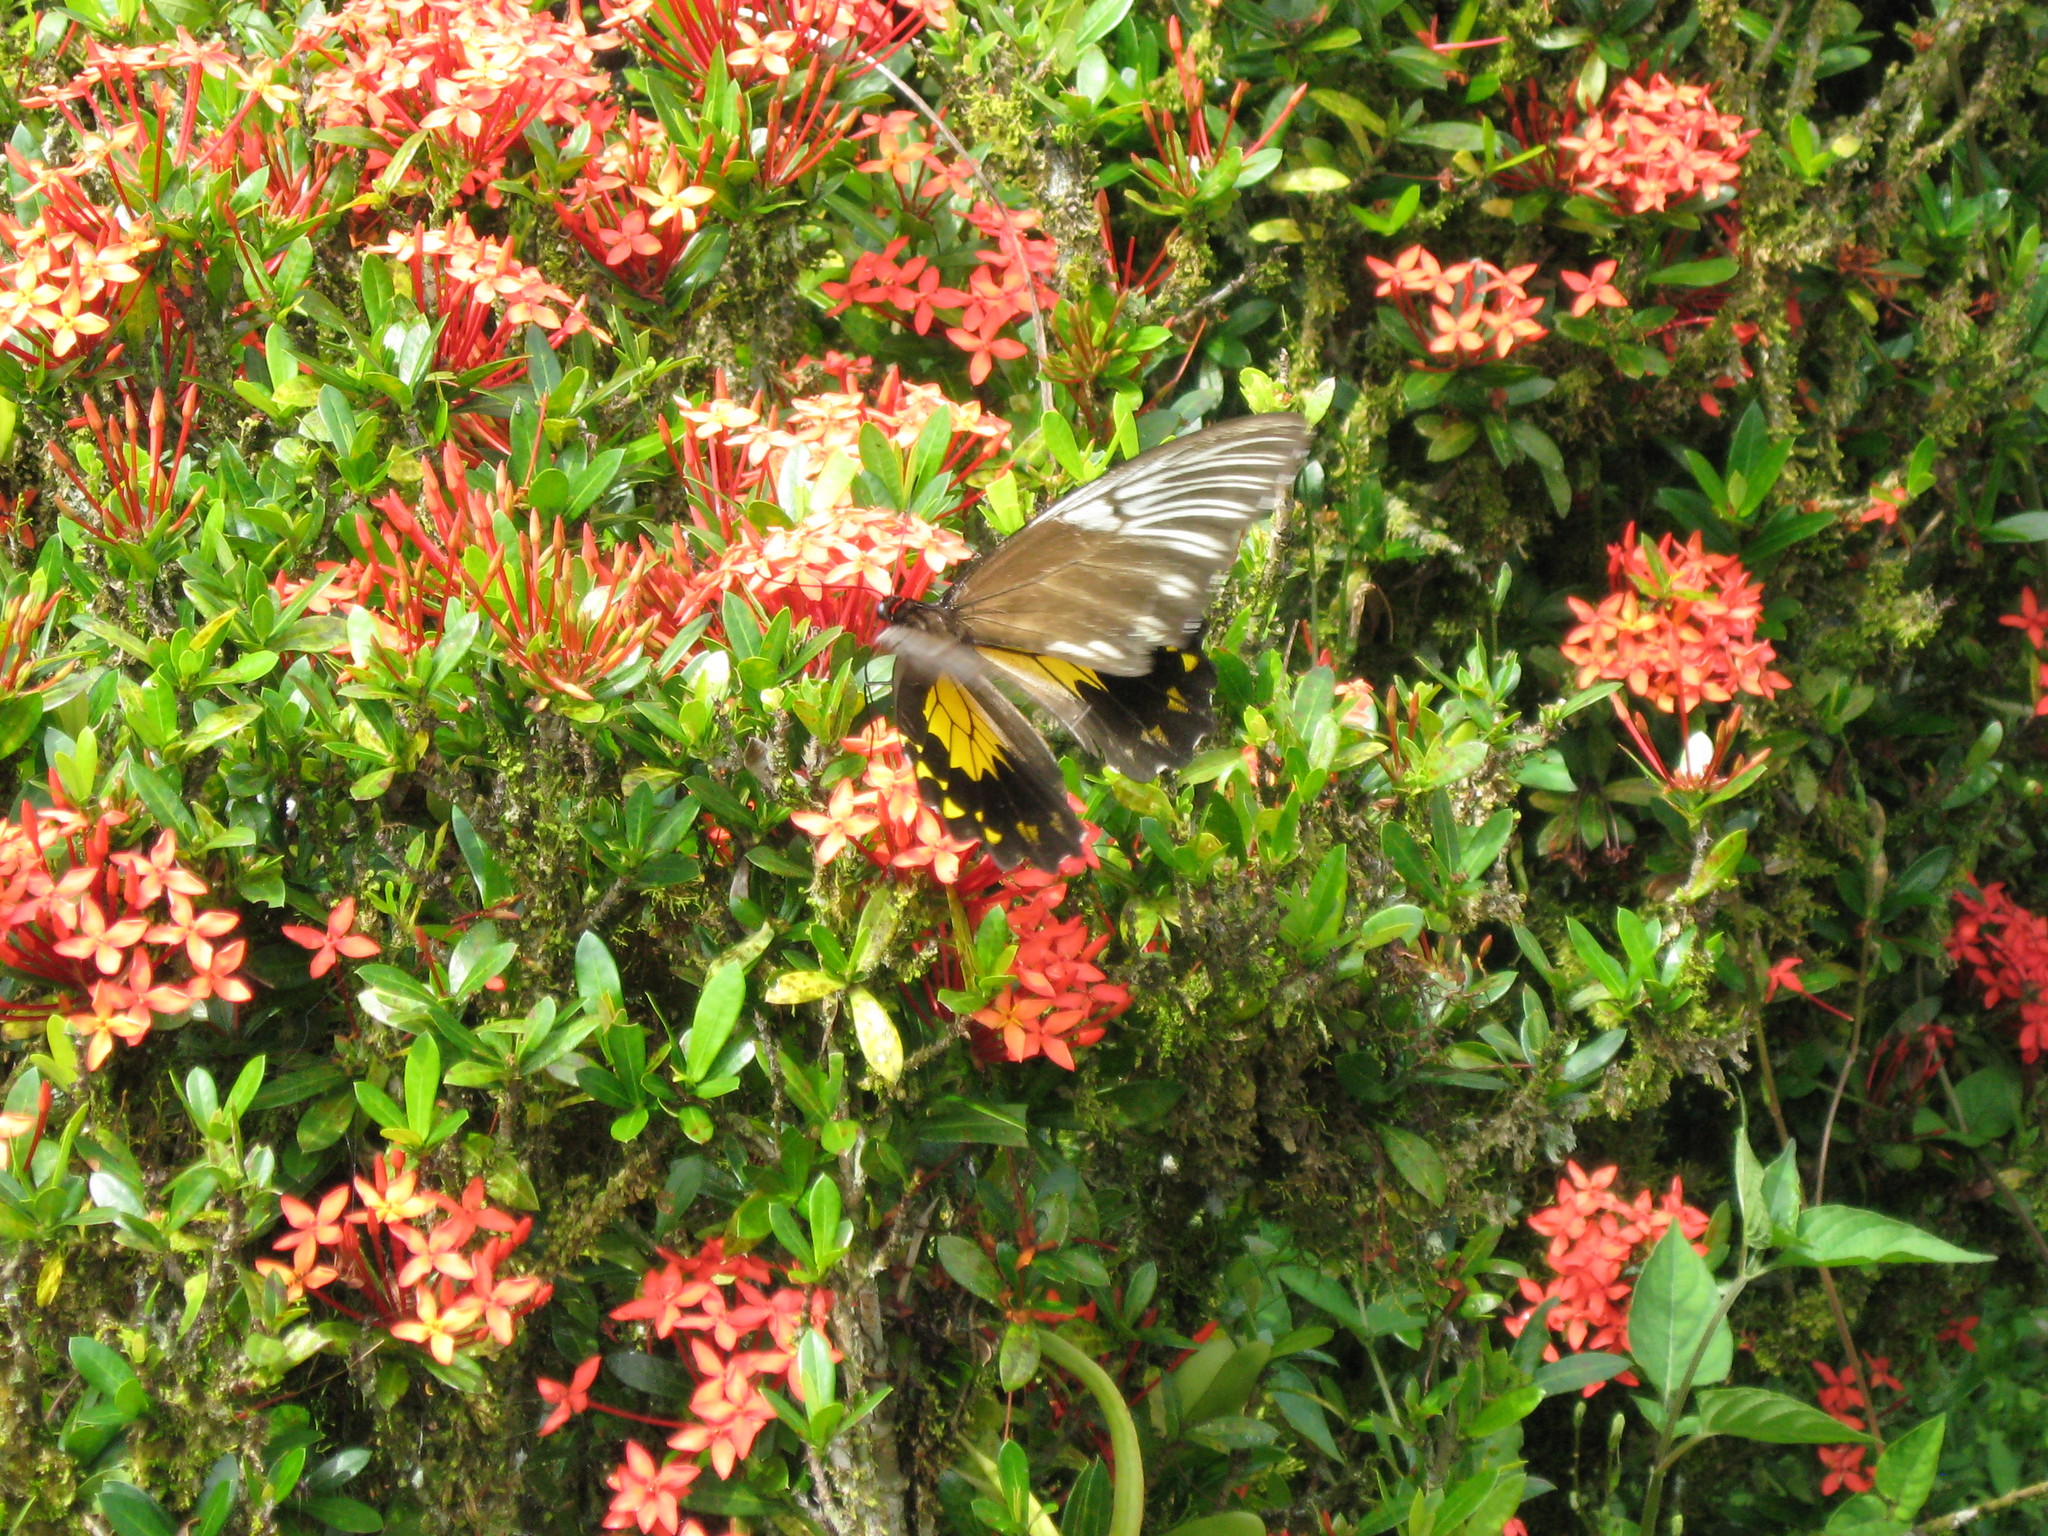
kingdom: Animalia
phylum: Arthropoda
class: Insecta
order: Lepidoptera
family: Papilionidae
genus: Troides
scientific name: Troides amphrysus
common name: Malay birdwing
